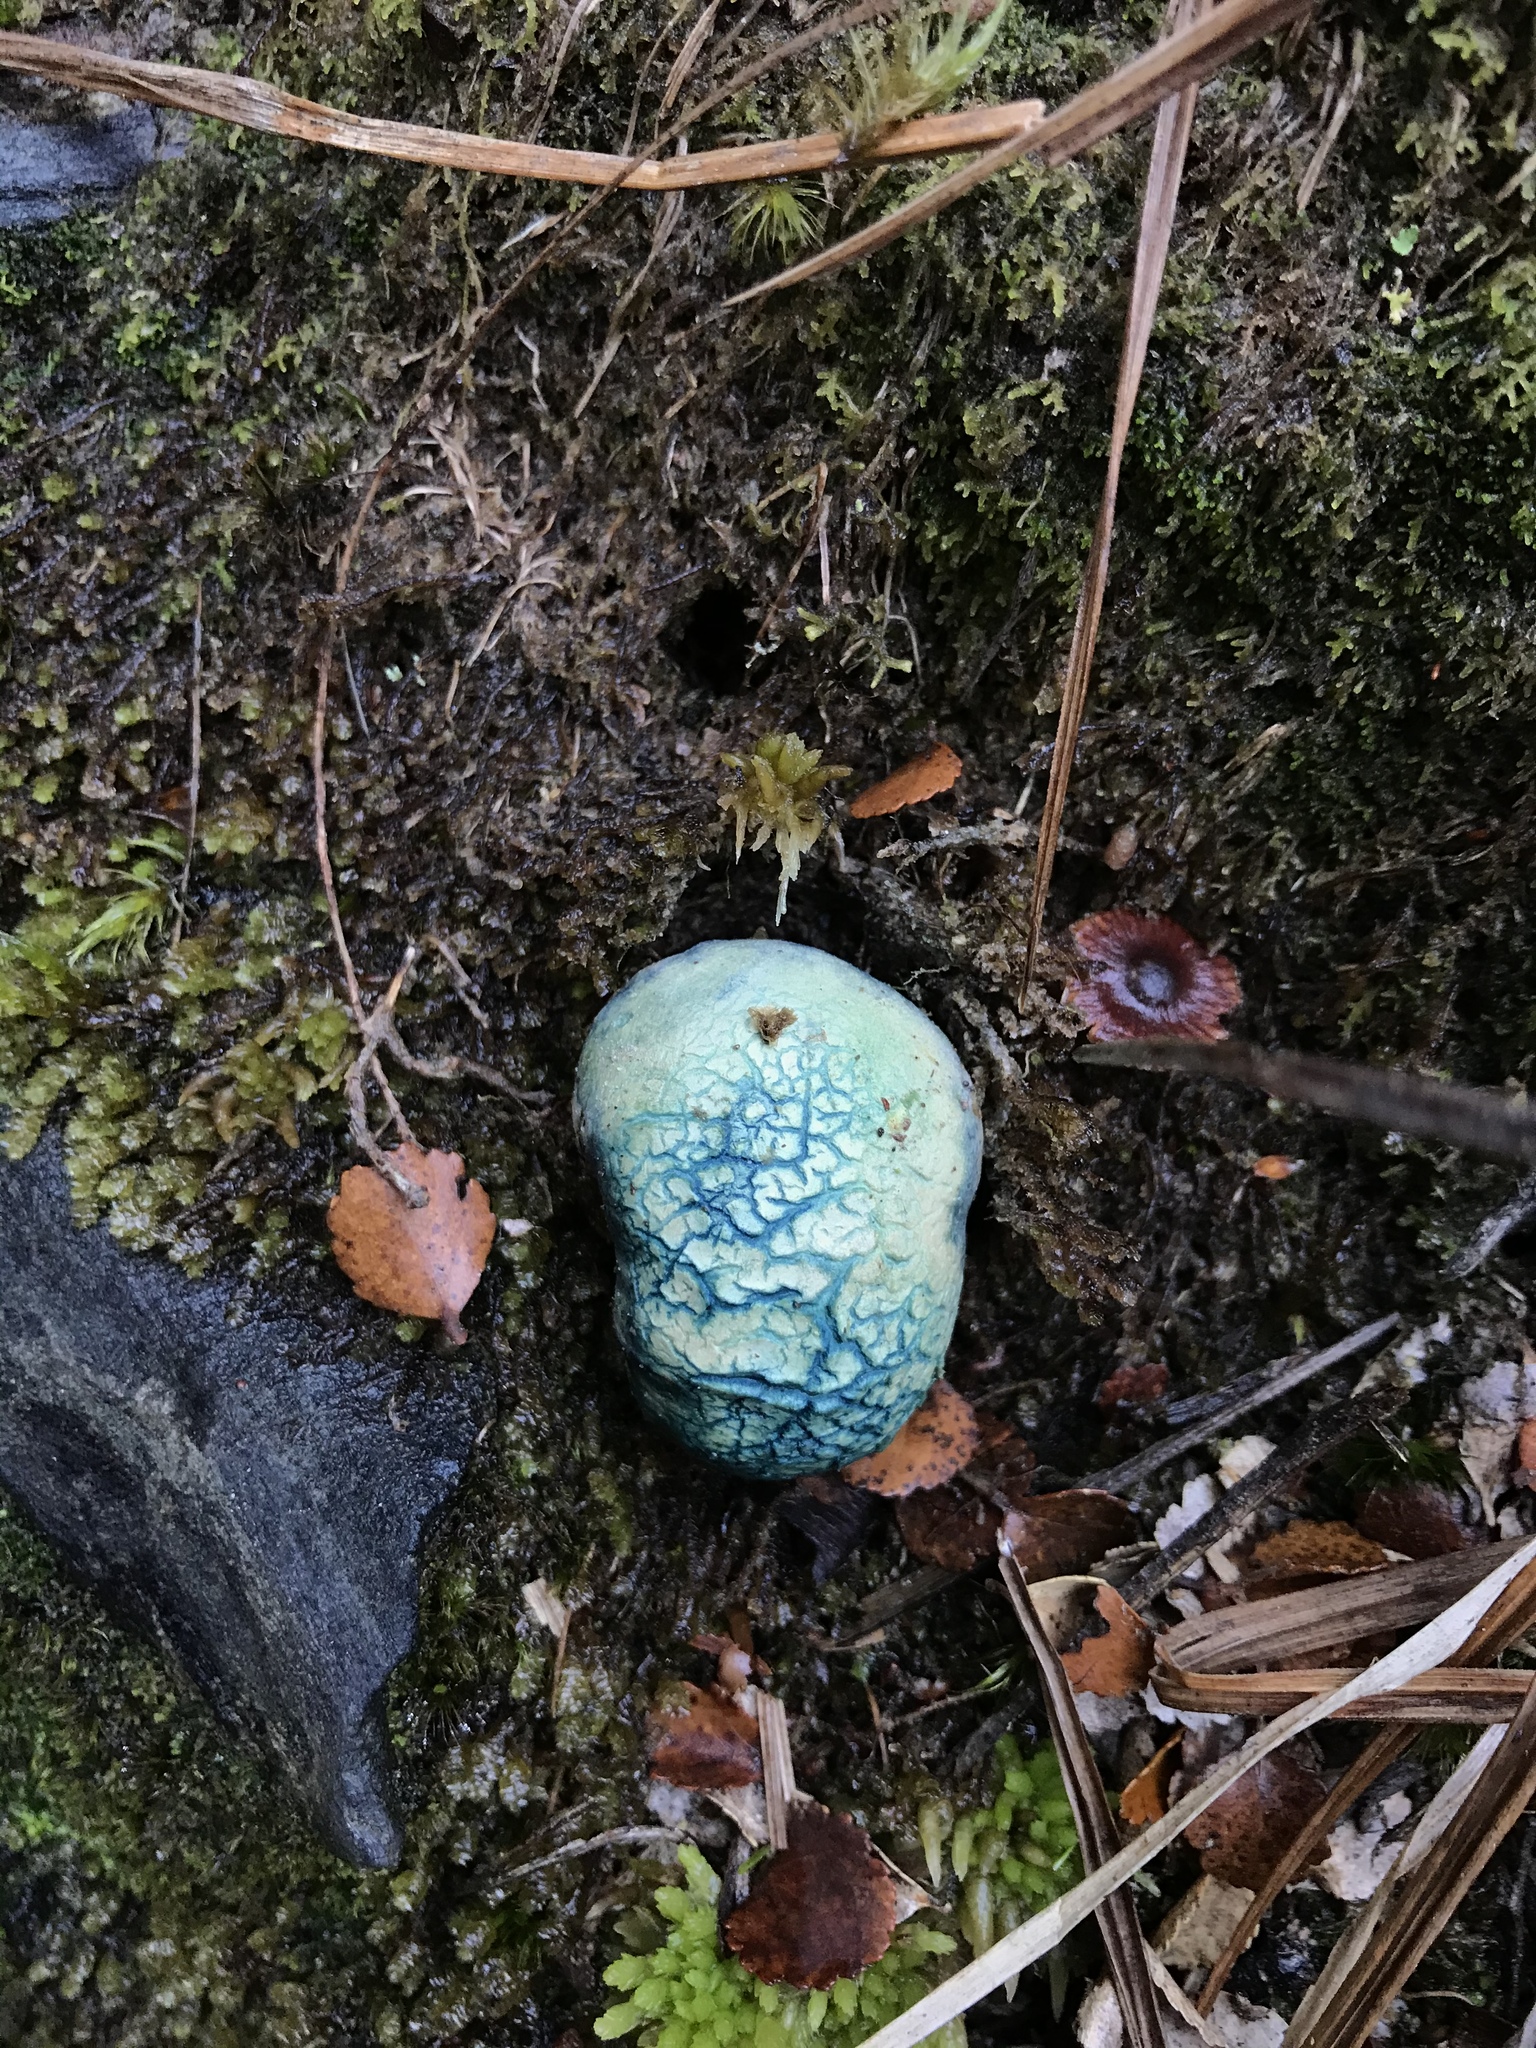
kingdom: Fungi
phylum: Basidiomycota
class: Agaricomycetes
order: Boletales
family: Boletaceae
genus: Leccinum
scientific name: Leccinum pachyderme
